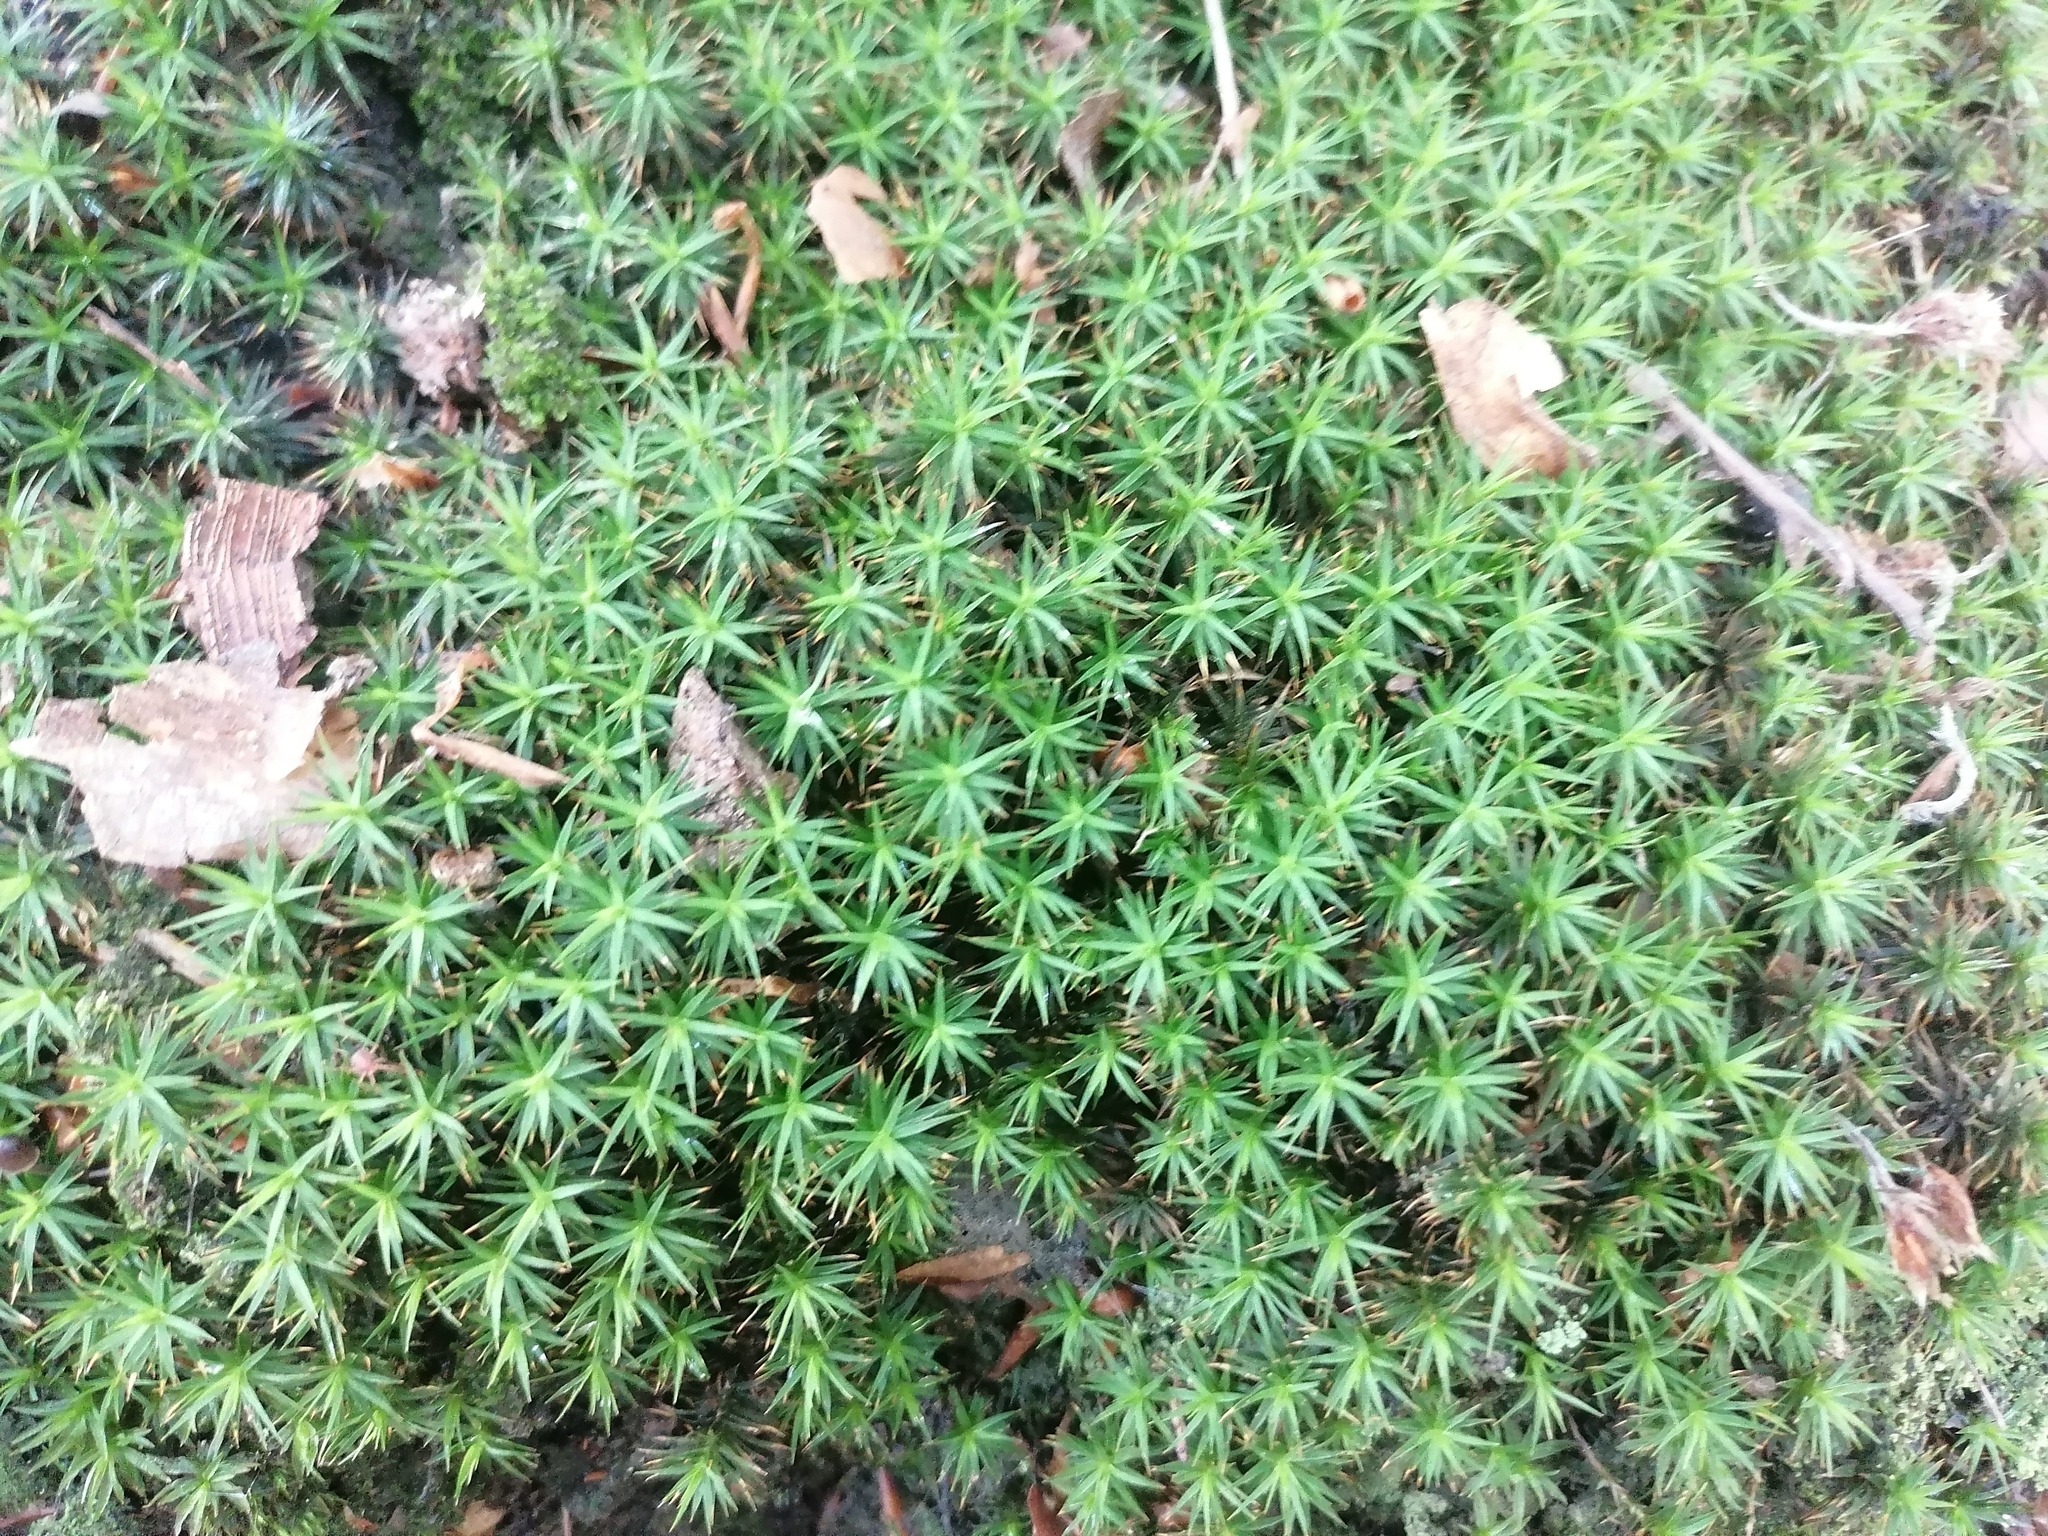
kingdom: Plantae
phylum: Bryophyta
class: Polytrichopsida
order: Polytrichales
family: Polytrichaceae
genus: Polytrichum
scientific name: Polytrichum formosum
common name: Bank haircap moss
